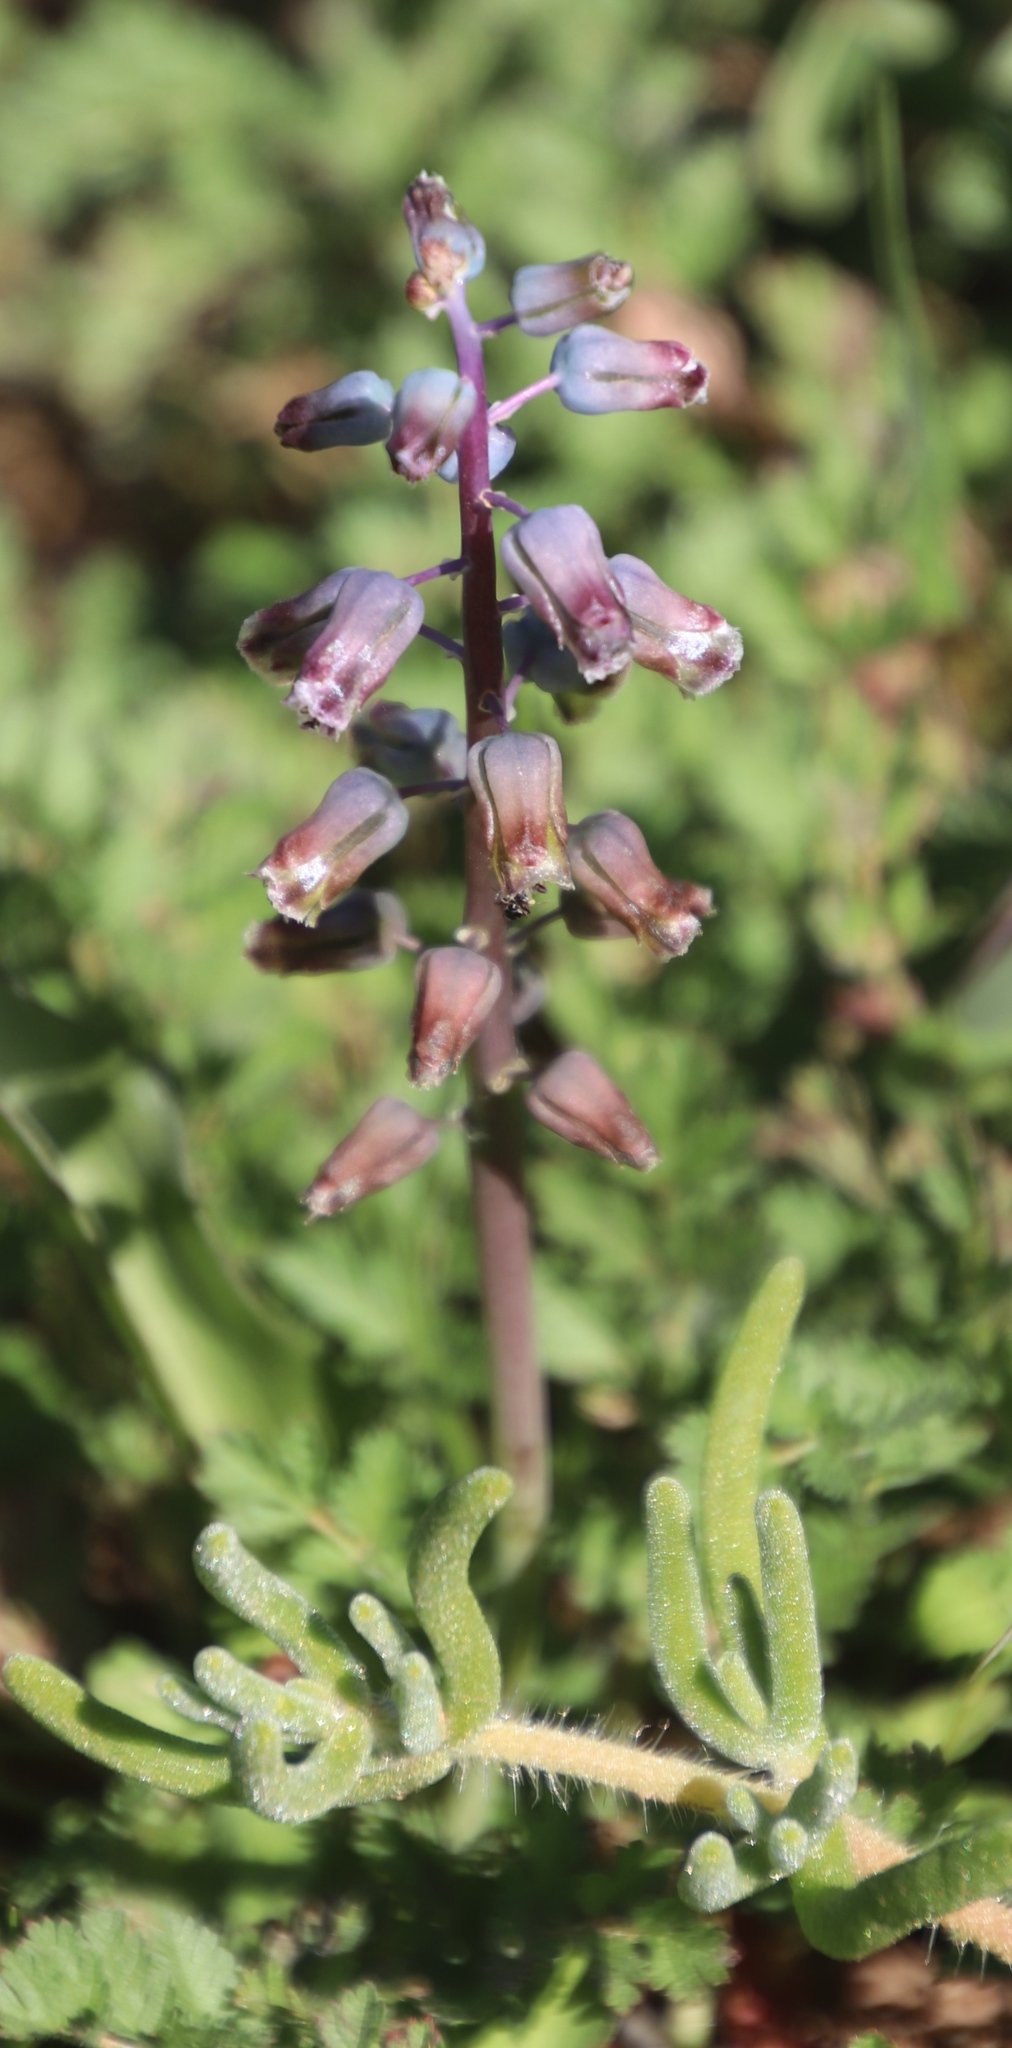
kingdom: Plantae
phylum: Tracheophyta
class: Liliopsida
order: Asparagales
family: Asparagaceae
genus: Lachenalia
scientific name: Lachenalia bolusii
